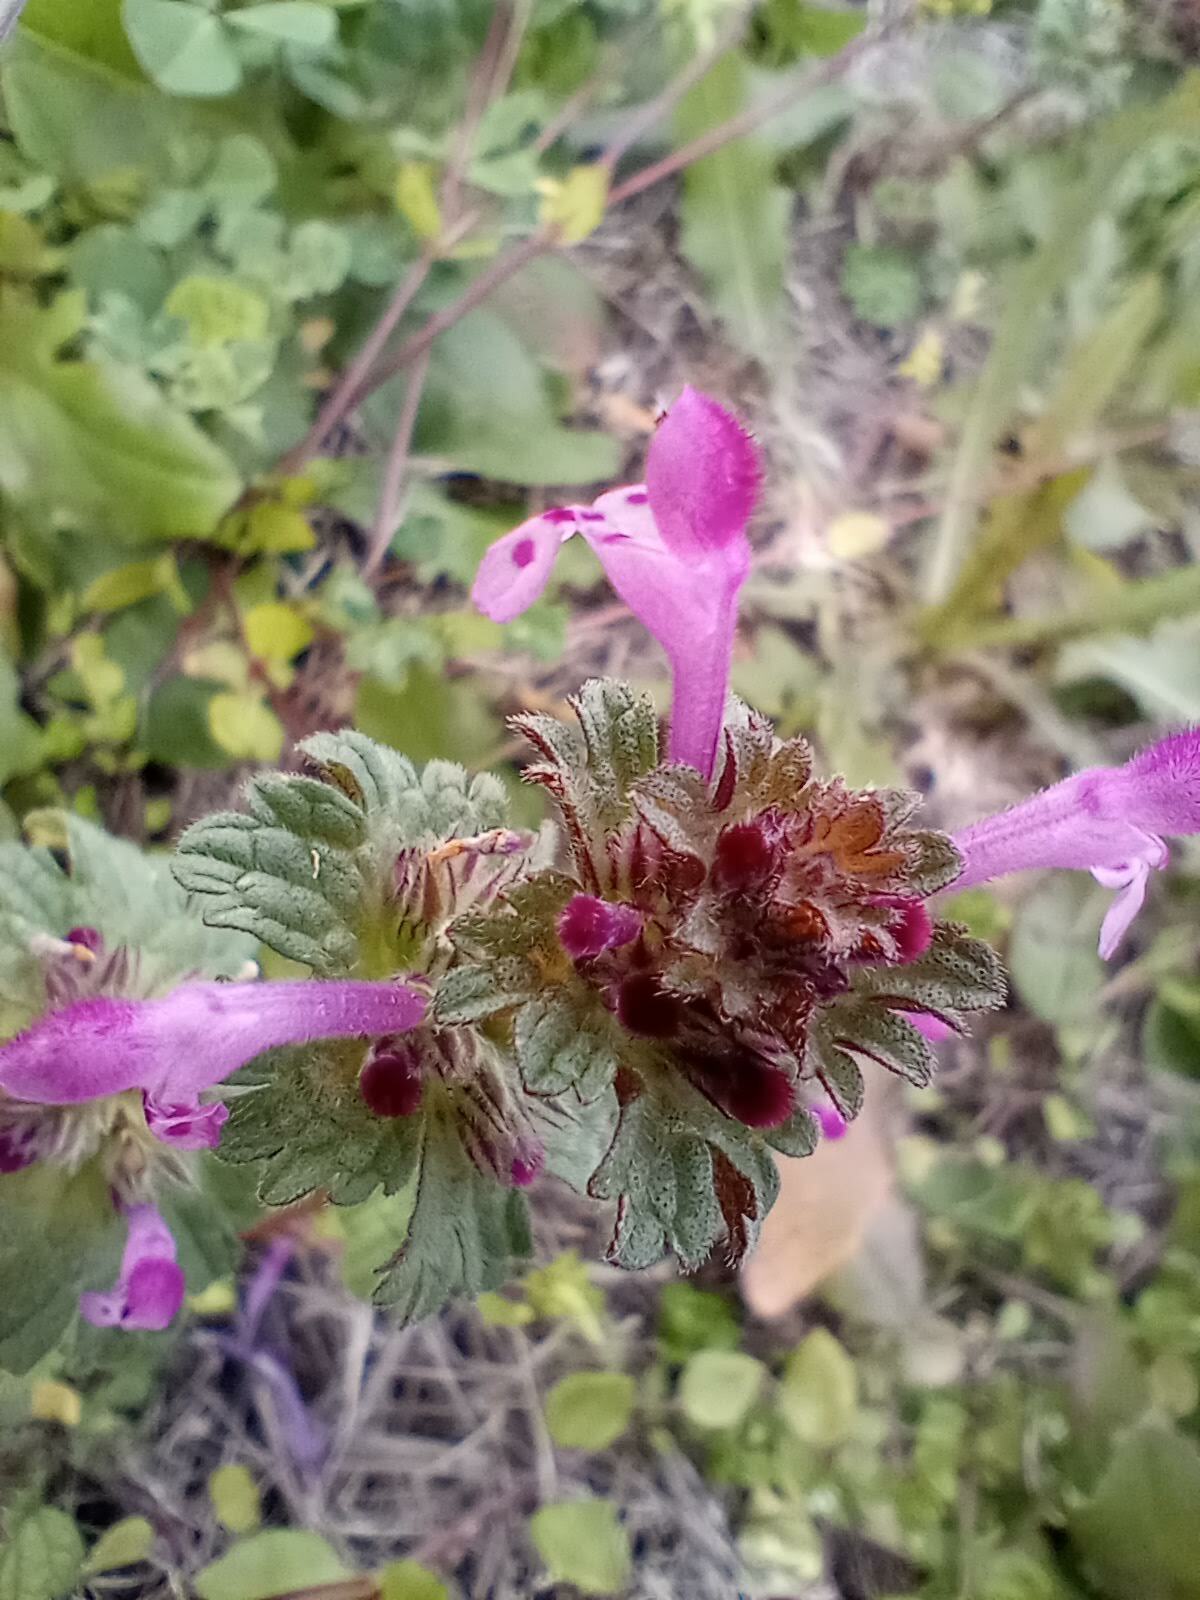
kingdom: Plantae
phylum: Tracheophyta
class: Magnoliopsida
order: Lamiales
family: Lamiaceae
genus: Lamium
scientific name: Lamium amplexicaule
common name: Henbit dead-nettle
